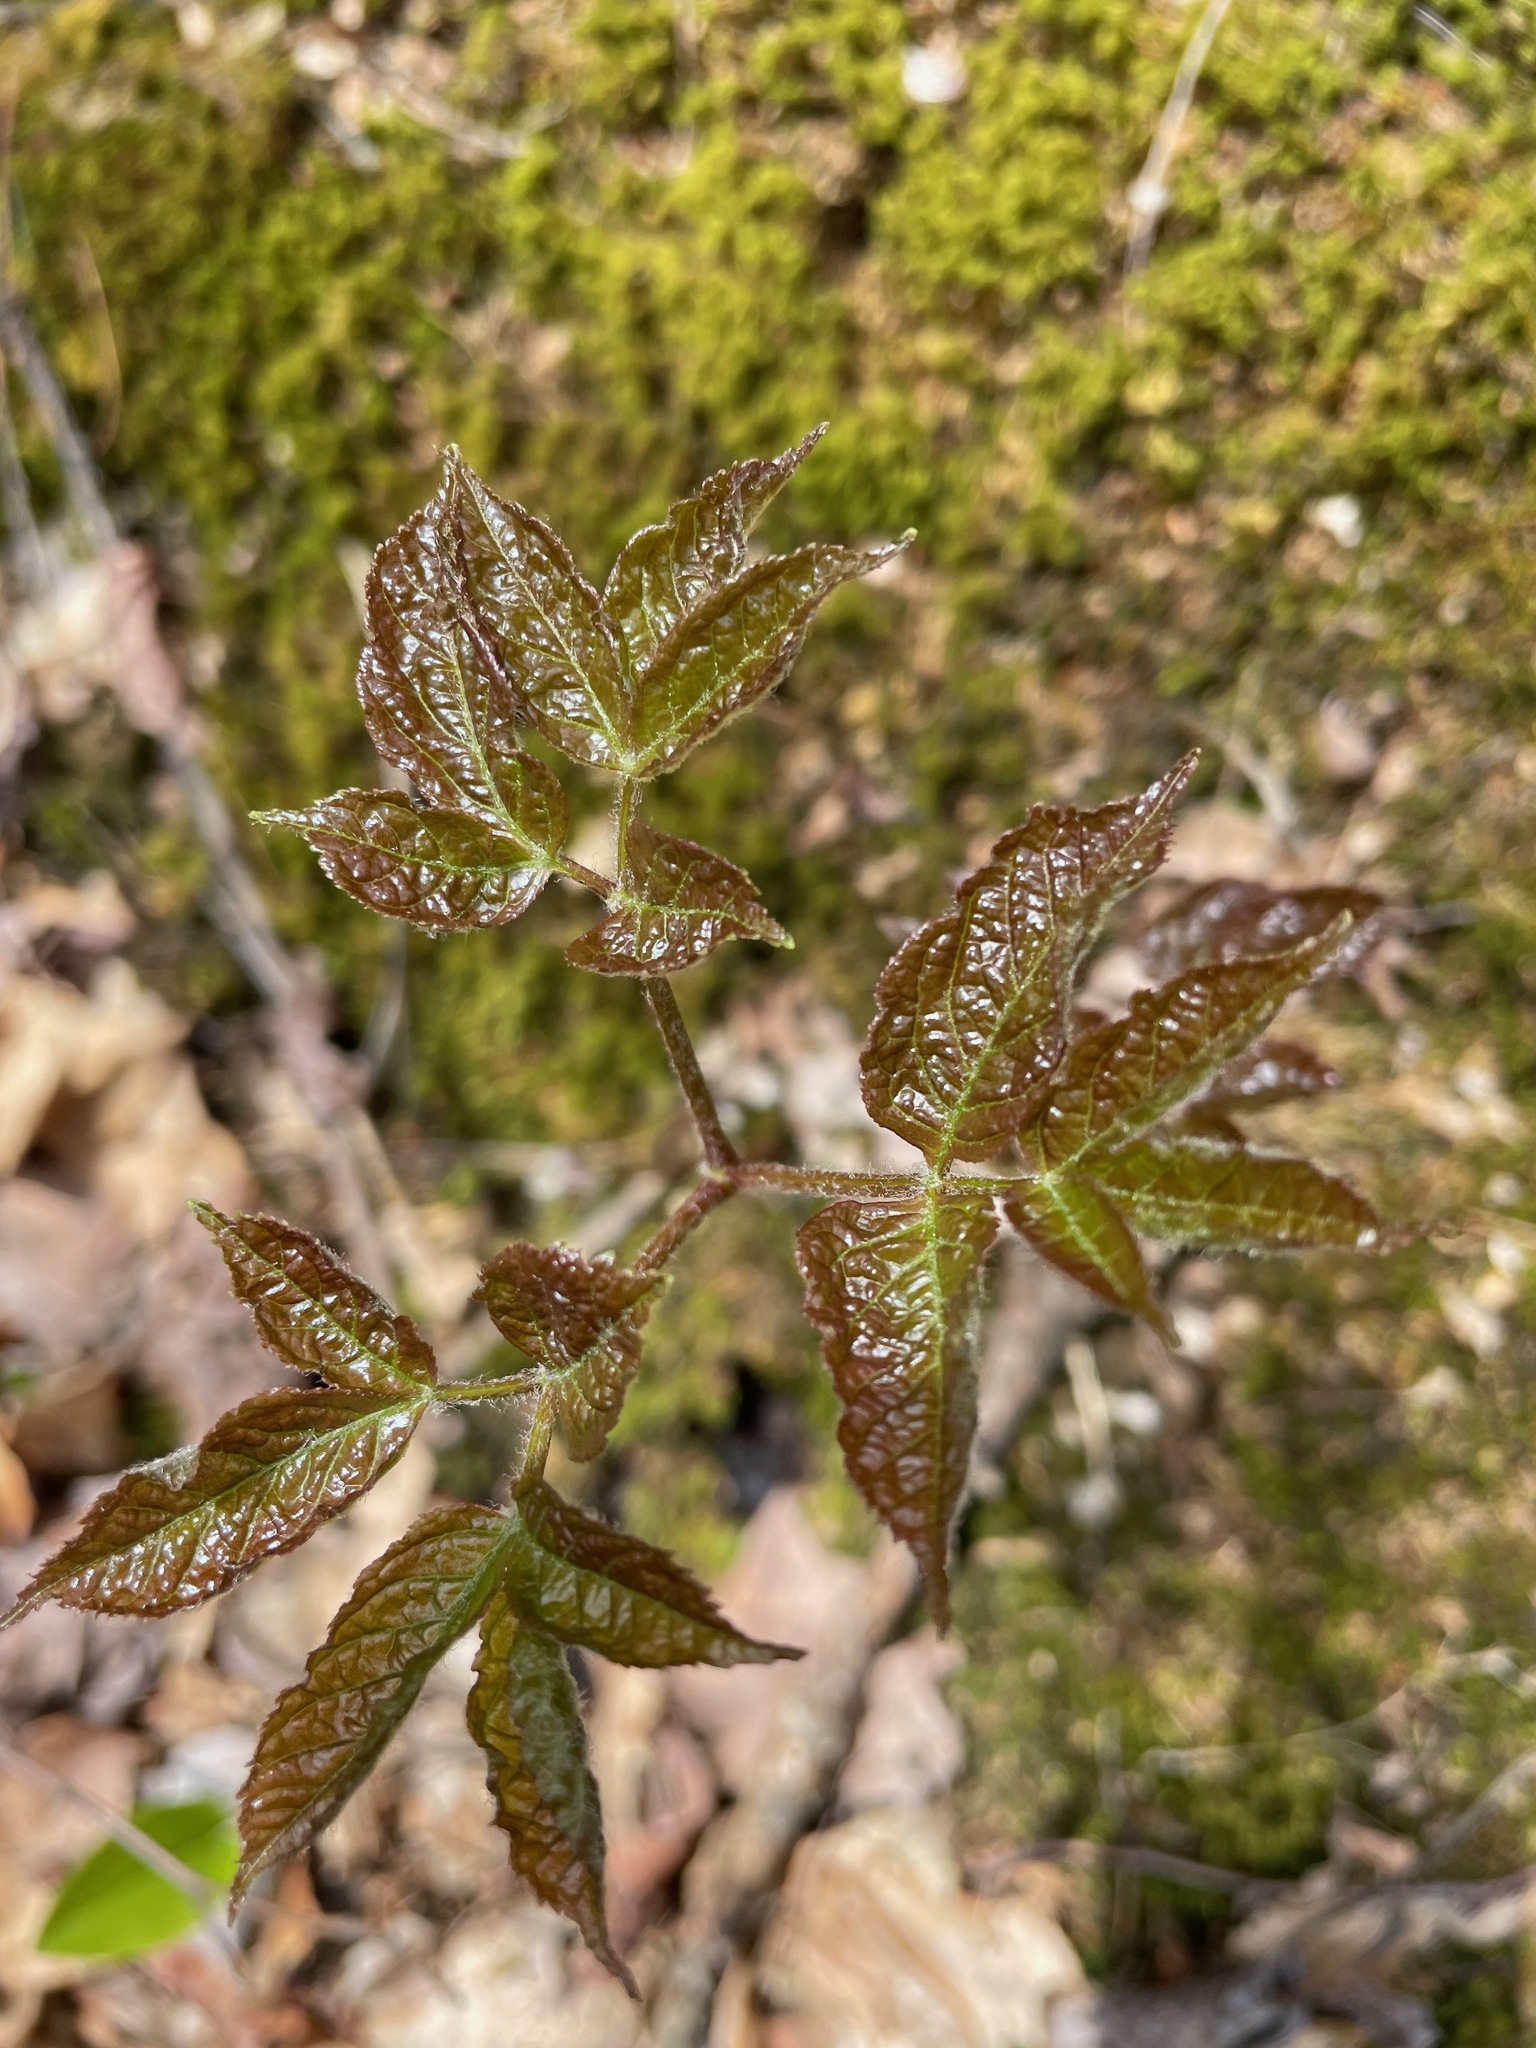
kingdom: Plantae
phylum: Tracheophyta
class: Magnoliopsida
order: Apiales
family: Araliaceae
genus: Aralia
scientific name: Aralia nudicaulis
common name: Wild sarsaparilla
